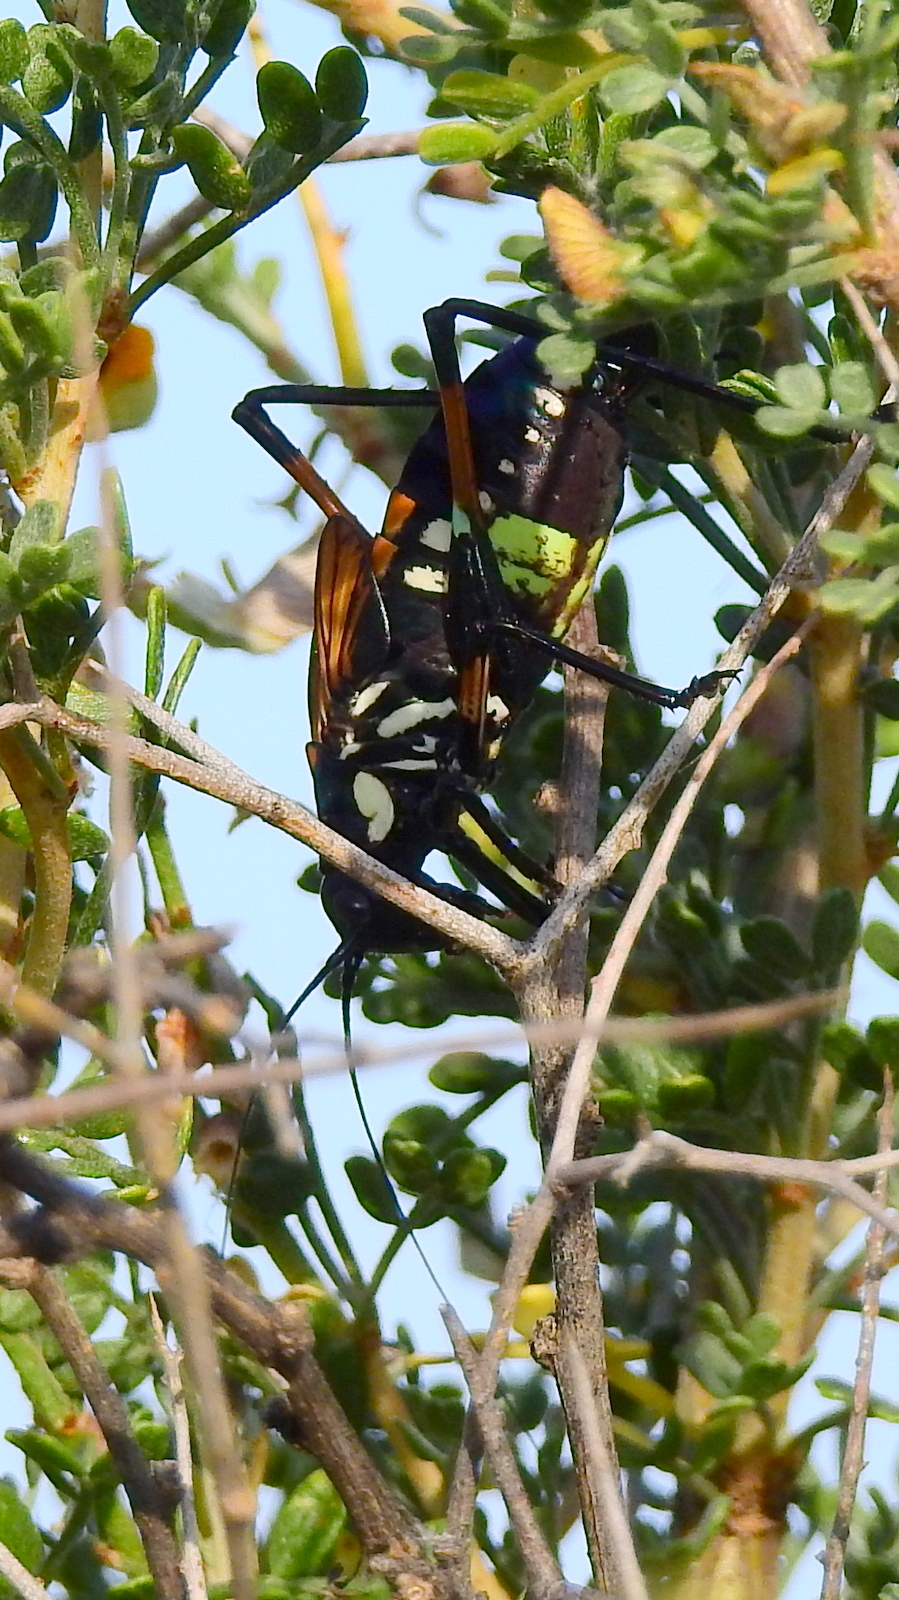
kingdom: Animalia
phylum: Arthropoda
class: Insecta
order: Orthoptera
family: Tettigoniidae
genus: Scaphura
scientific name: Scaphura elegans
